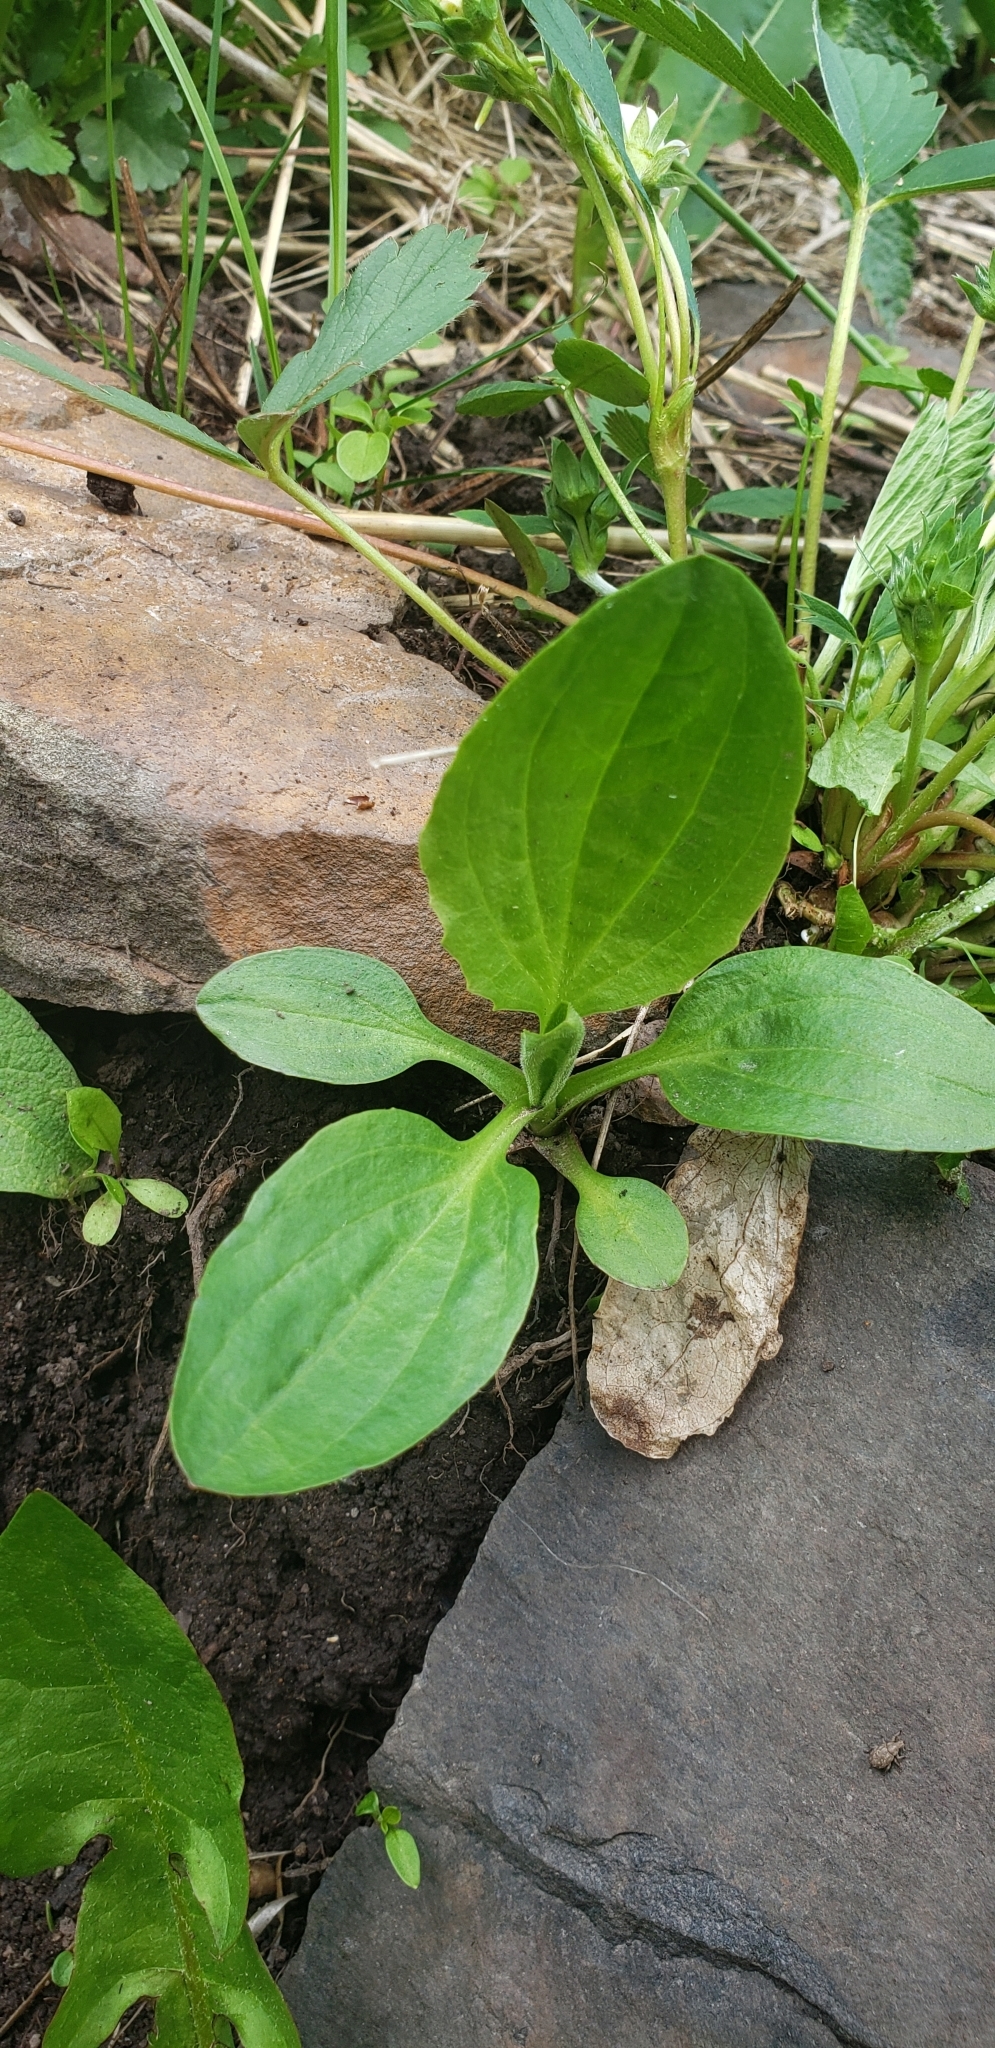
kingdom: Plantae
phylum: Tracheophyta
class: Magnoliopsida
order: Lamiales
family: Plantaginaceae
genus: Plantago
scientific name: Plantago major
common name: Common plantain
